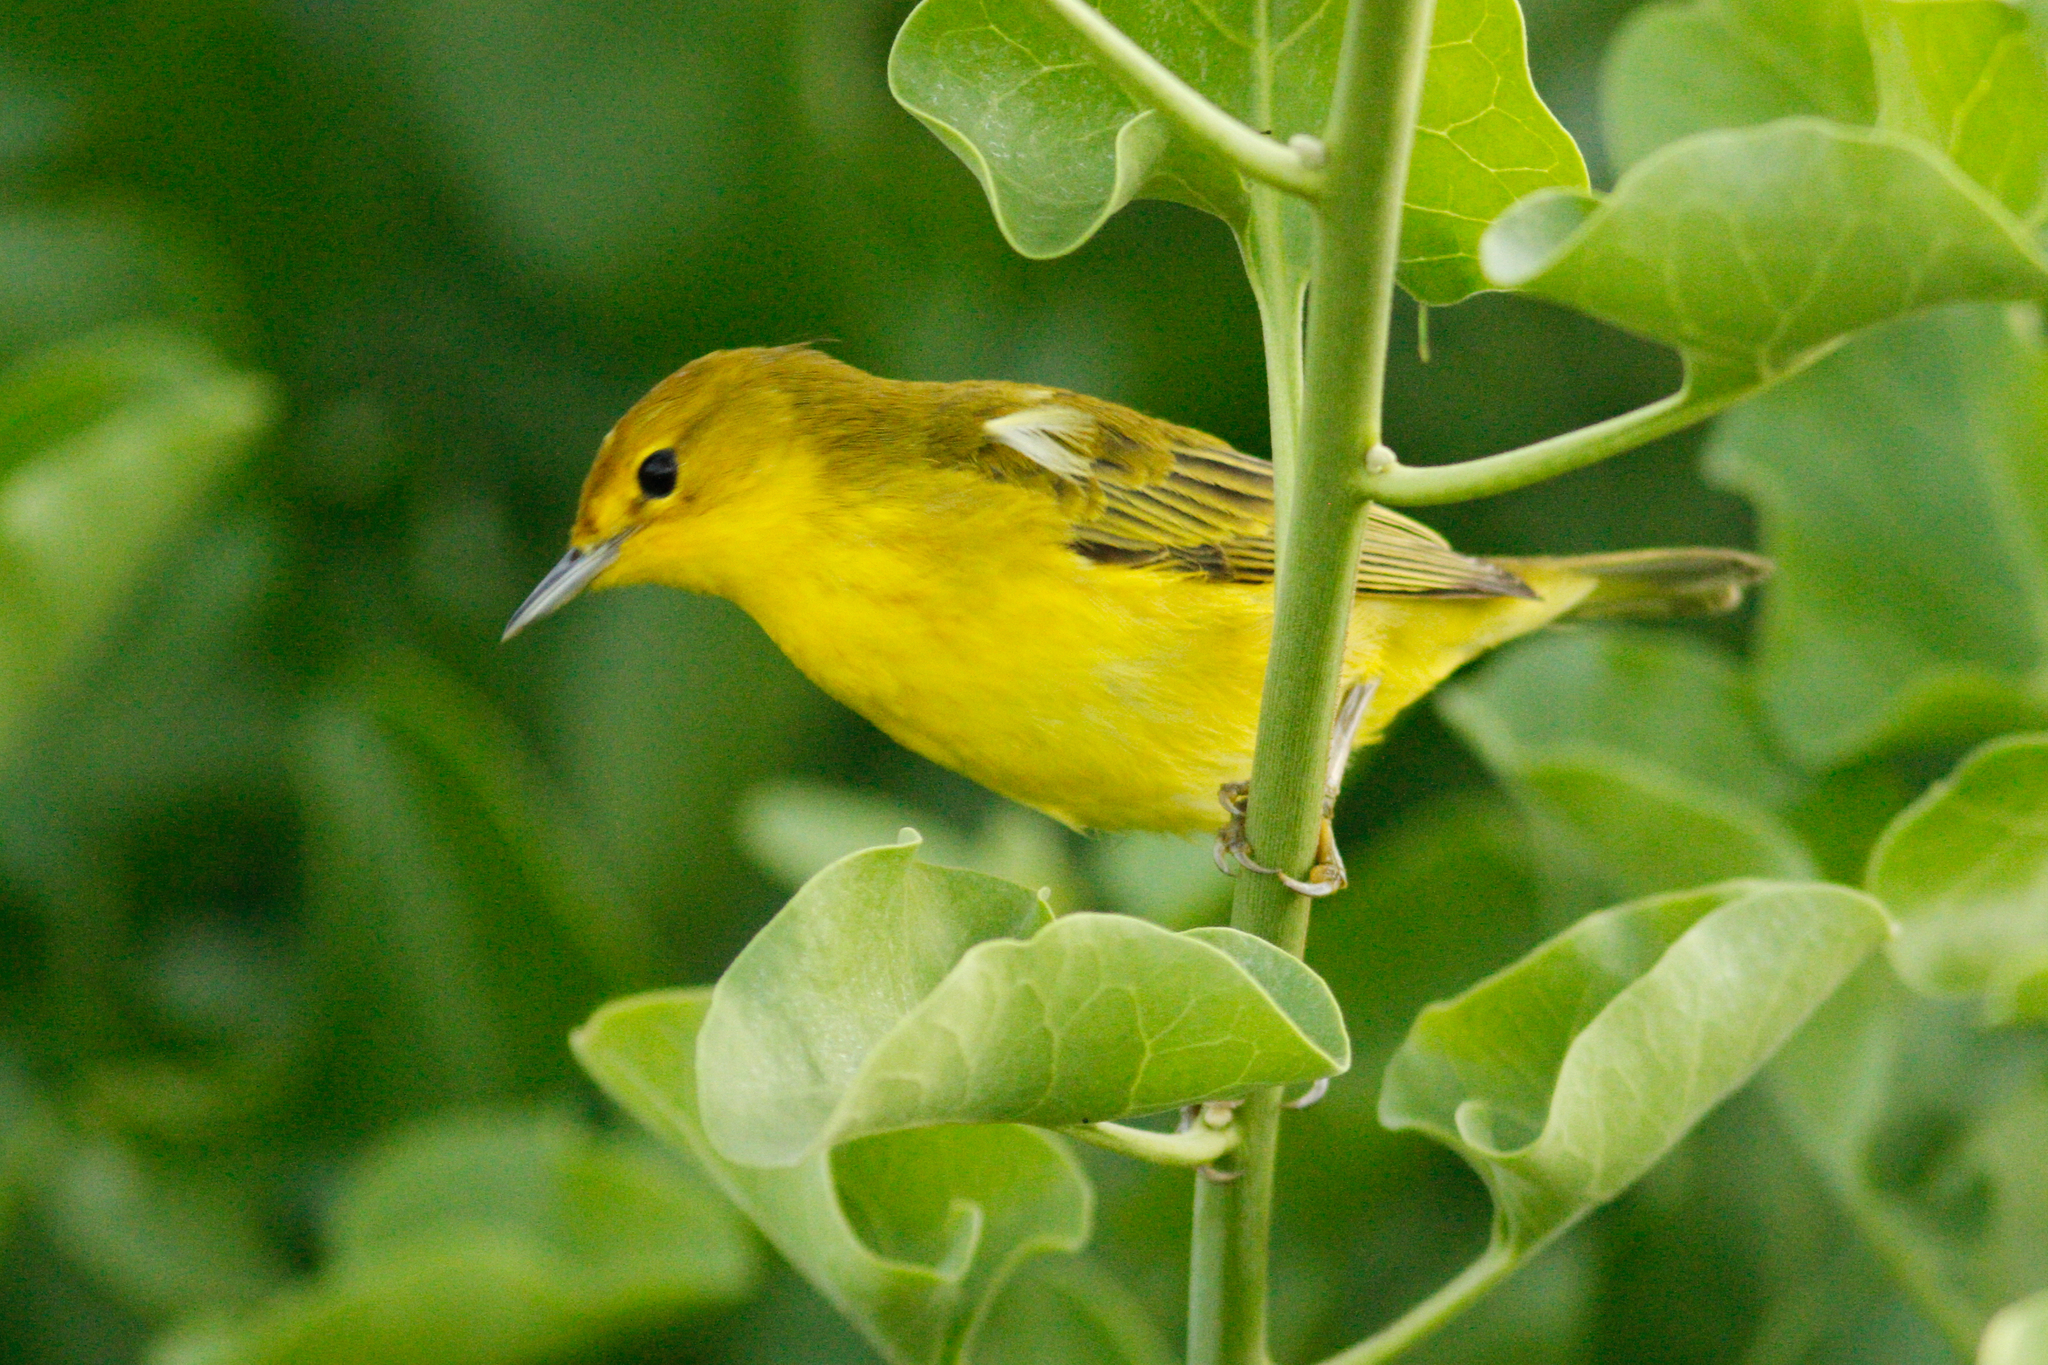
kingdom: Animalia
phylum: Chordata
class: Aves
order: Passeriformes
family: Parulidae
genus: Setophaga
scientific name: Setophaga petechia
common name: Yellow warbler
